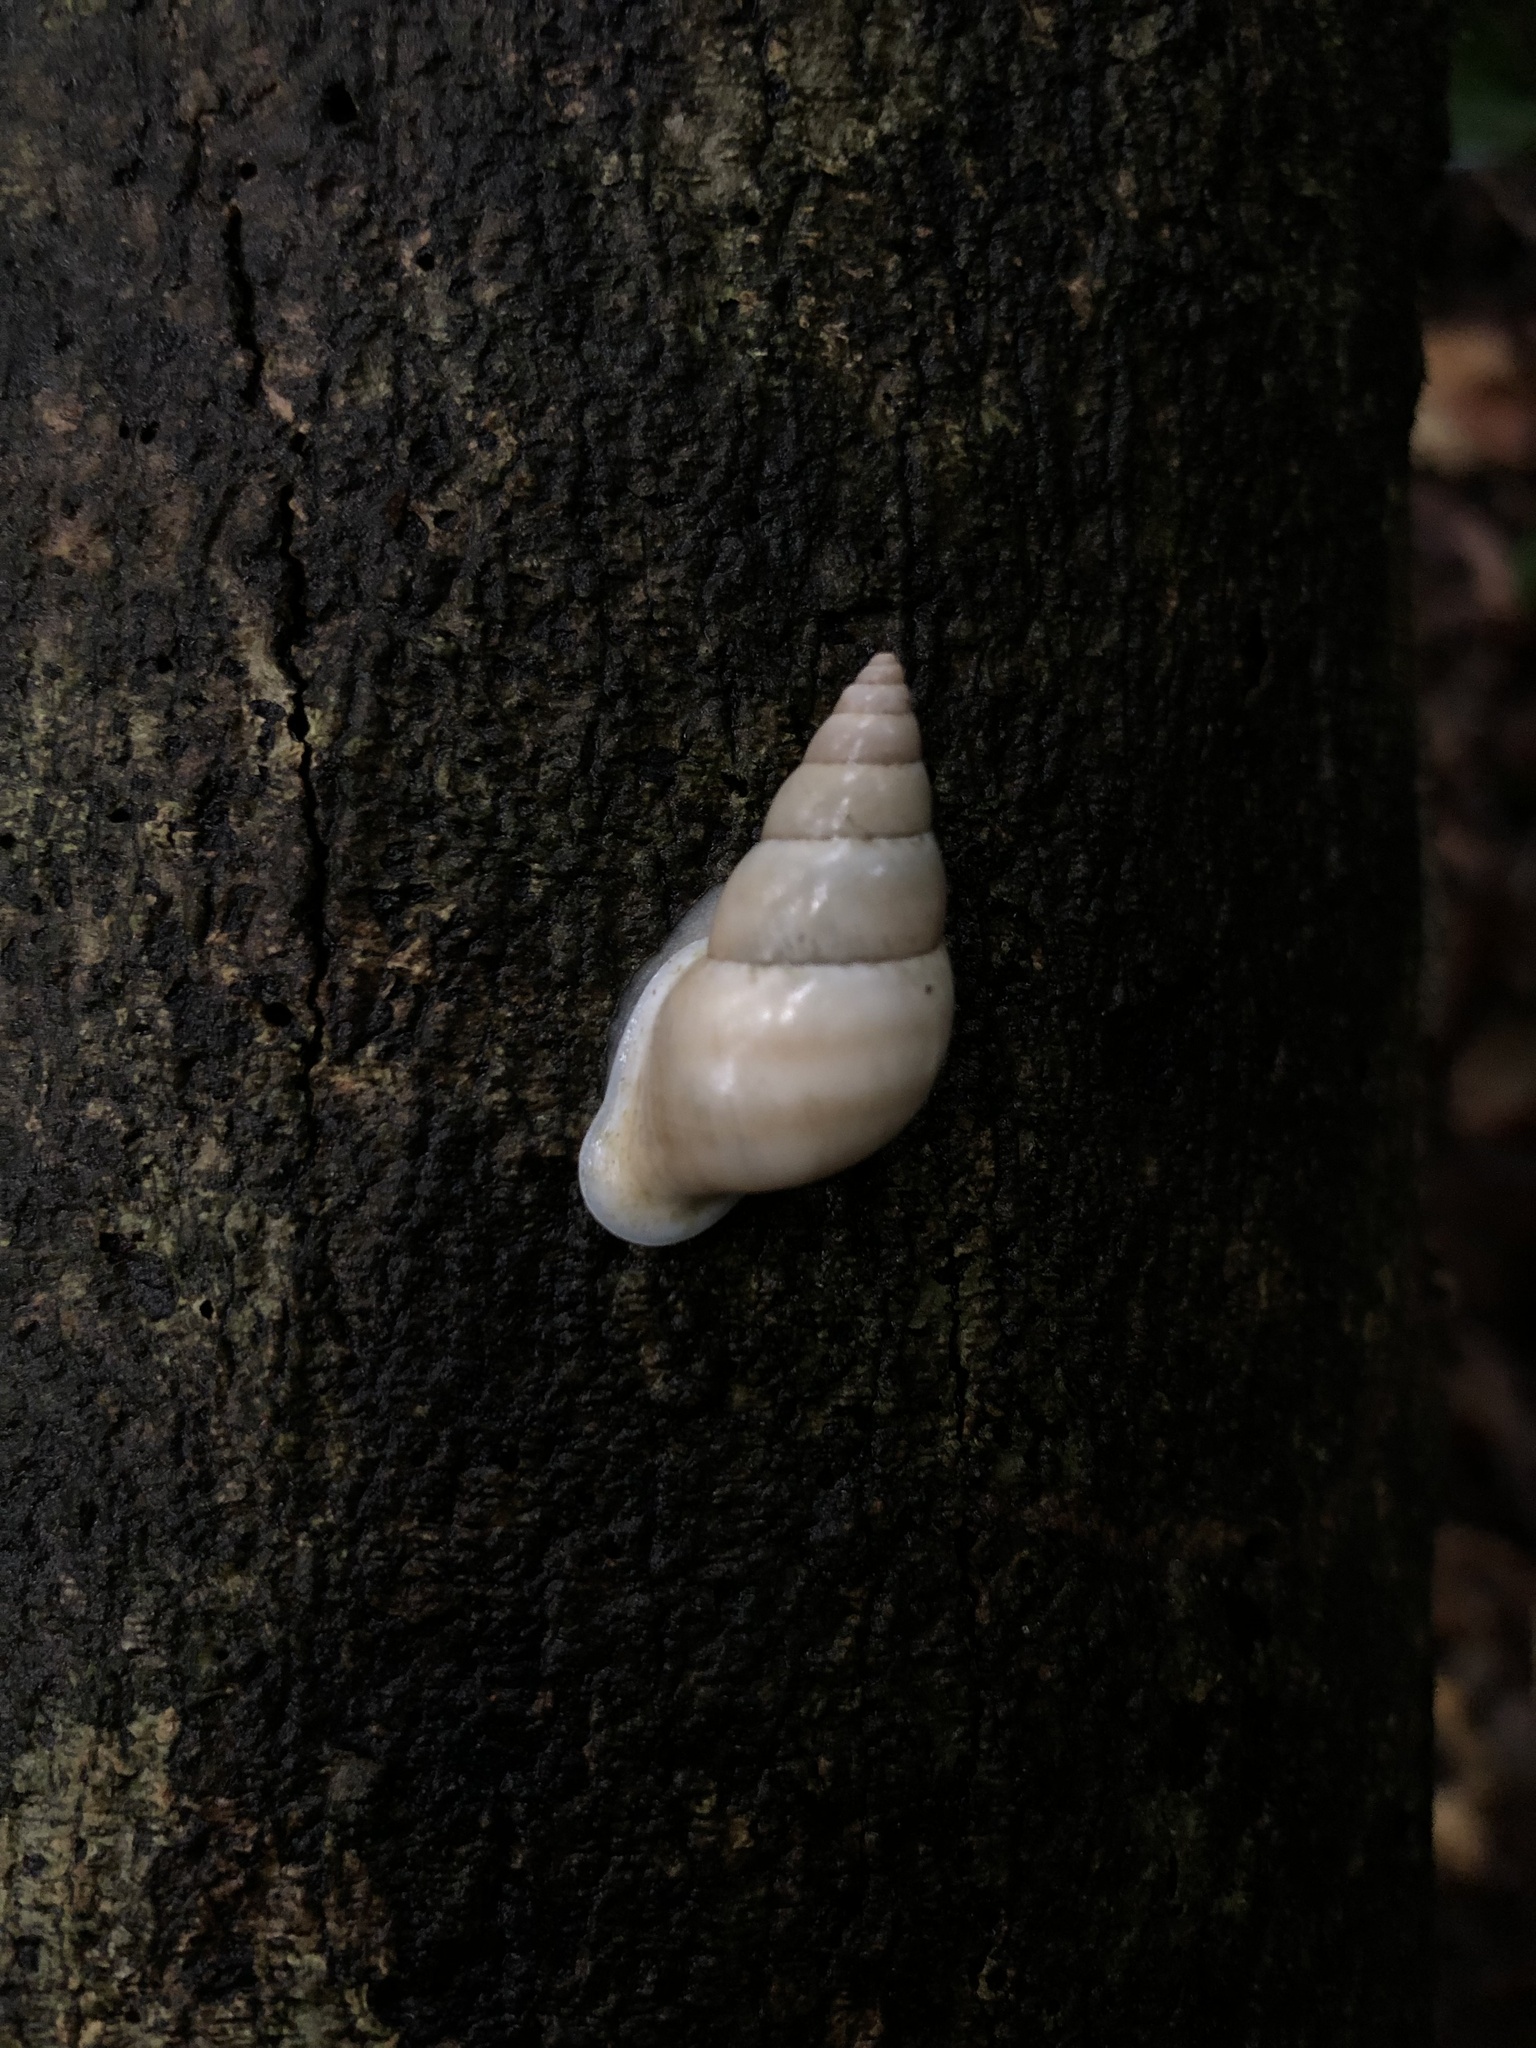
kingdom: Animalia
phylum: Mollusca
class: Gastropoda
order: Stylommatophora
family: Bulimulidae
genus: Drymaeus
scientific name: Drymaeus flexilabris
